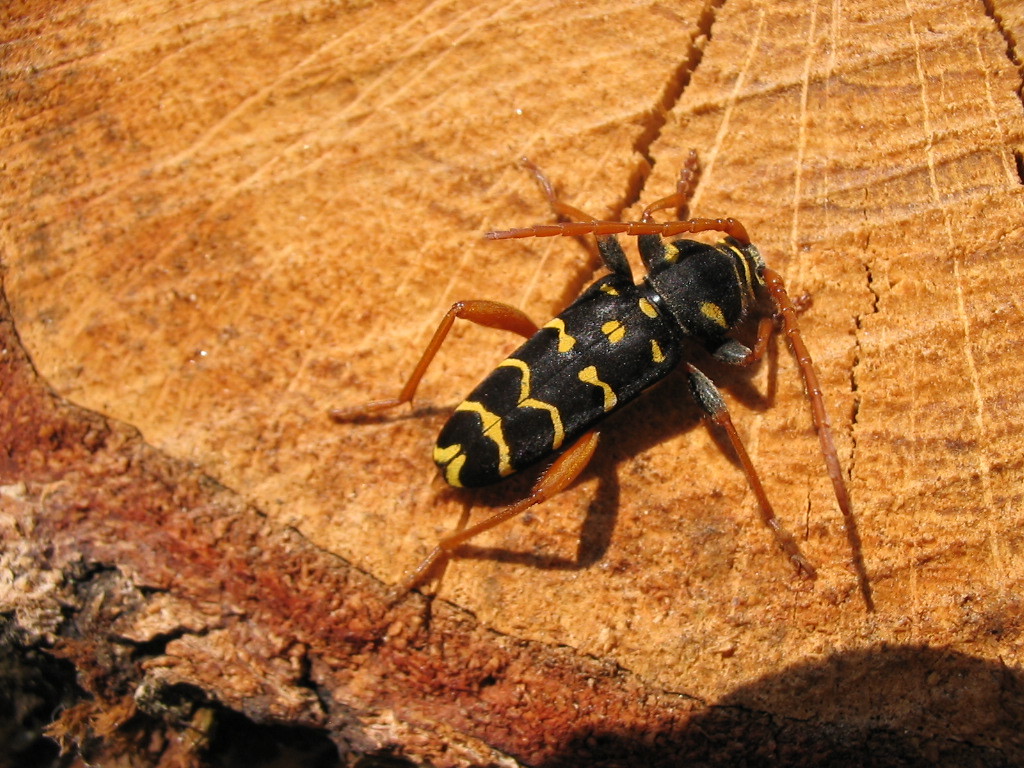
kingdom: Animalia
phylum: Arthropoda
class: Insecta
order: Coleoptera
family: Cerambycidae
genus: Plagionotus
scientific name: Plagionotus arcuatus
